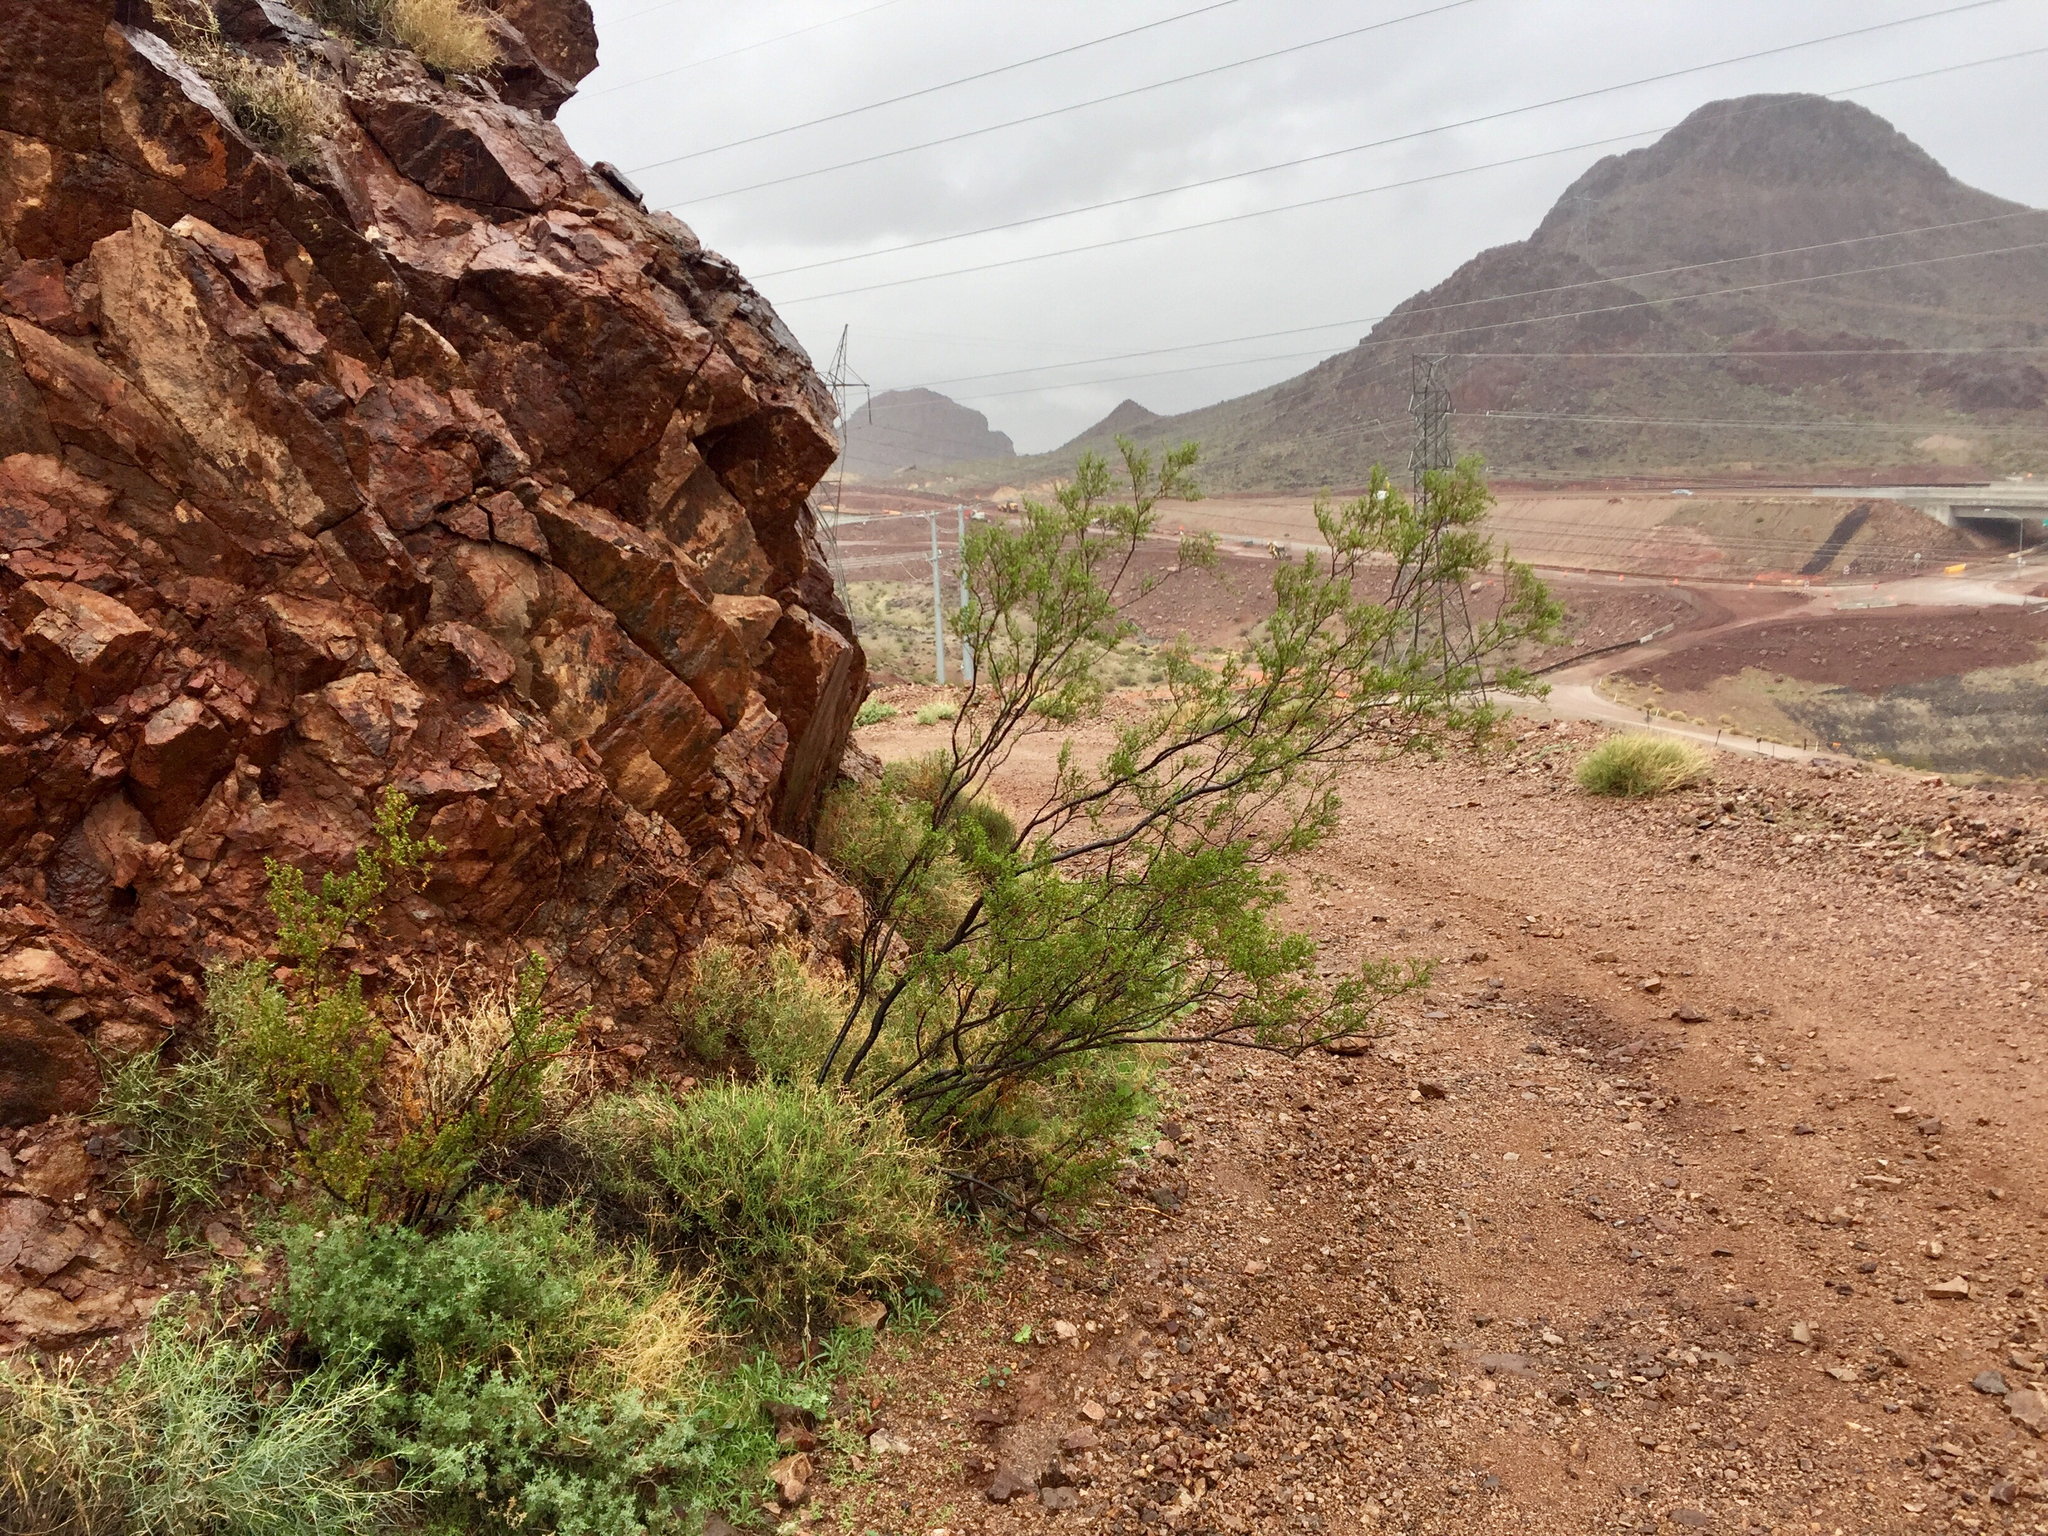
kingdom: Plantae
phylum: Tracheophyta
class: Magnoliopsida
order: Zygophyllales
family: Zygophyllaceae
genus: Larrea
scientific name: Larrea tridentata
